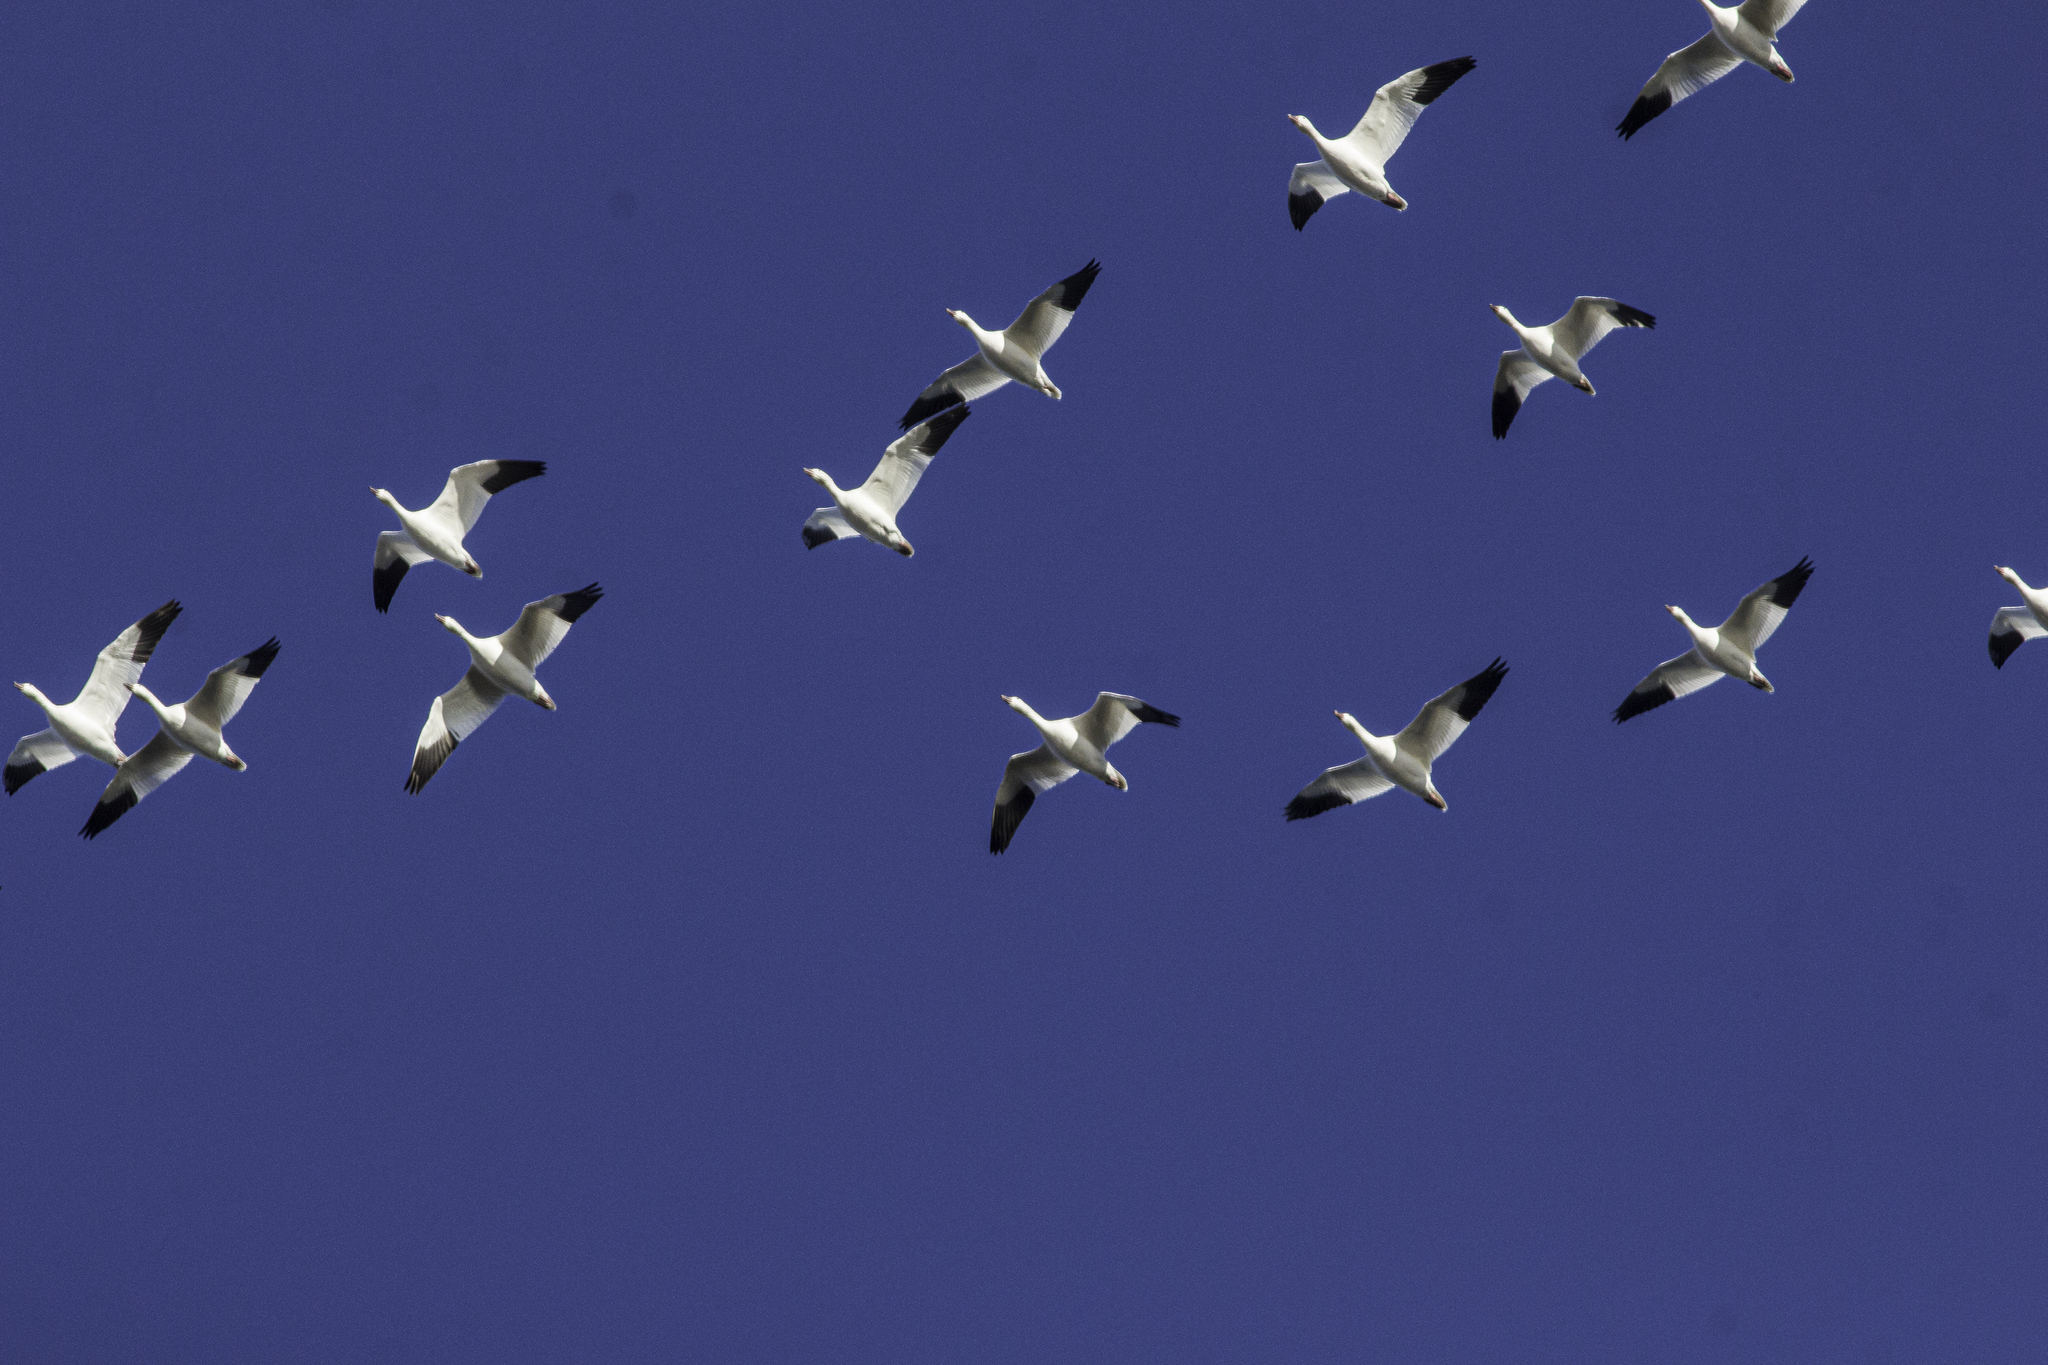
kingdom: Animalia
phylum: Chordata
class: Aves
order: Anseriformes
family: Anatidae
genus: Anser
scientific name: Anser caerulescens
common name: Snow goose
